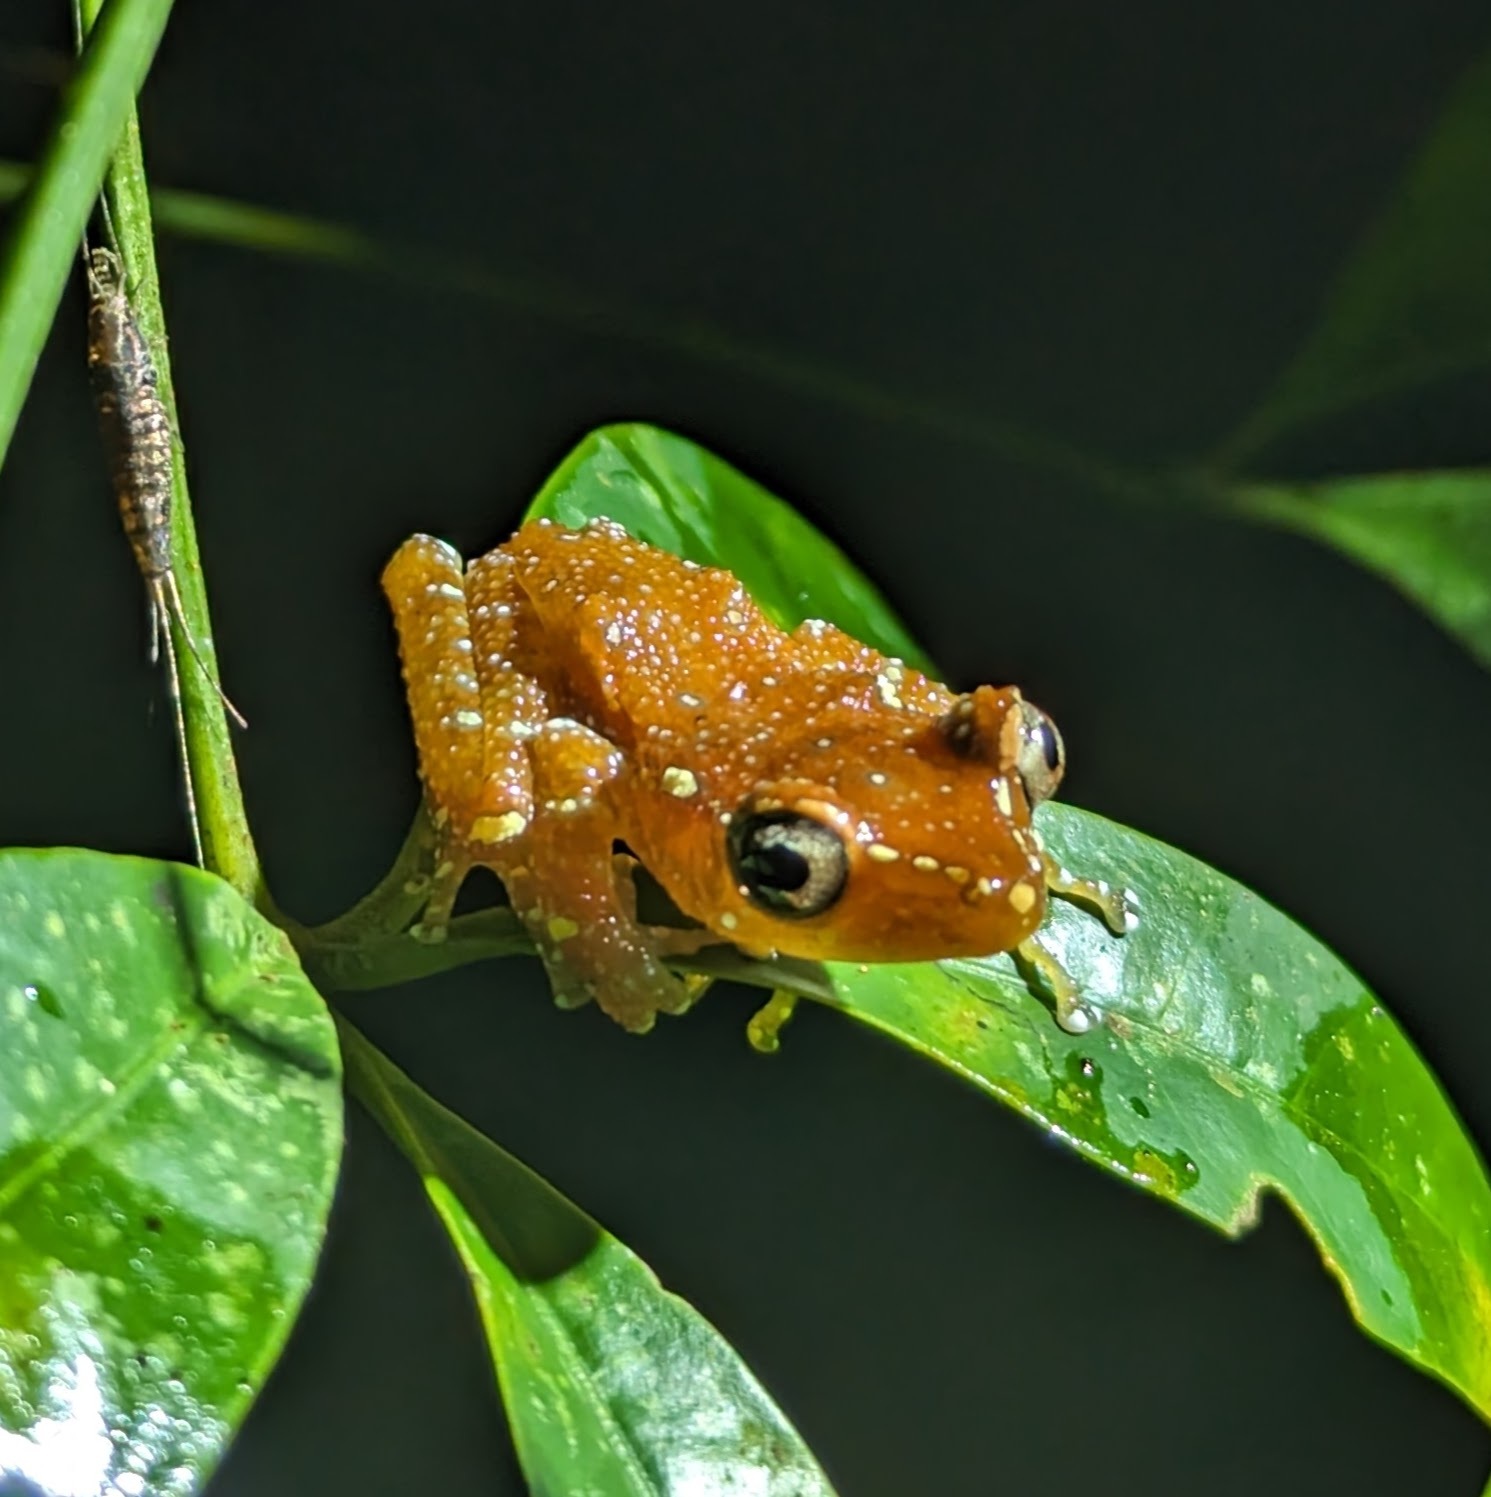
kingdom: Animalia
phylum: Chordata
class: Amphibia
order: Anura
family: Rhacophoridae
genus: Nyctixalus
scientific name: Nyctixalus pictus
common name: White-spotted tree frog
